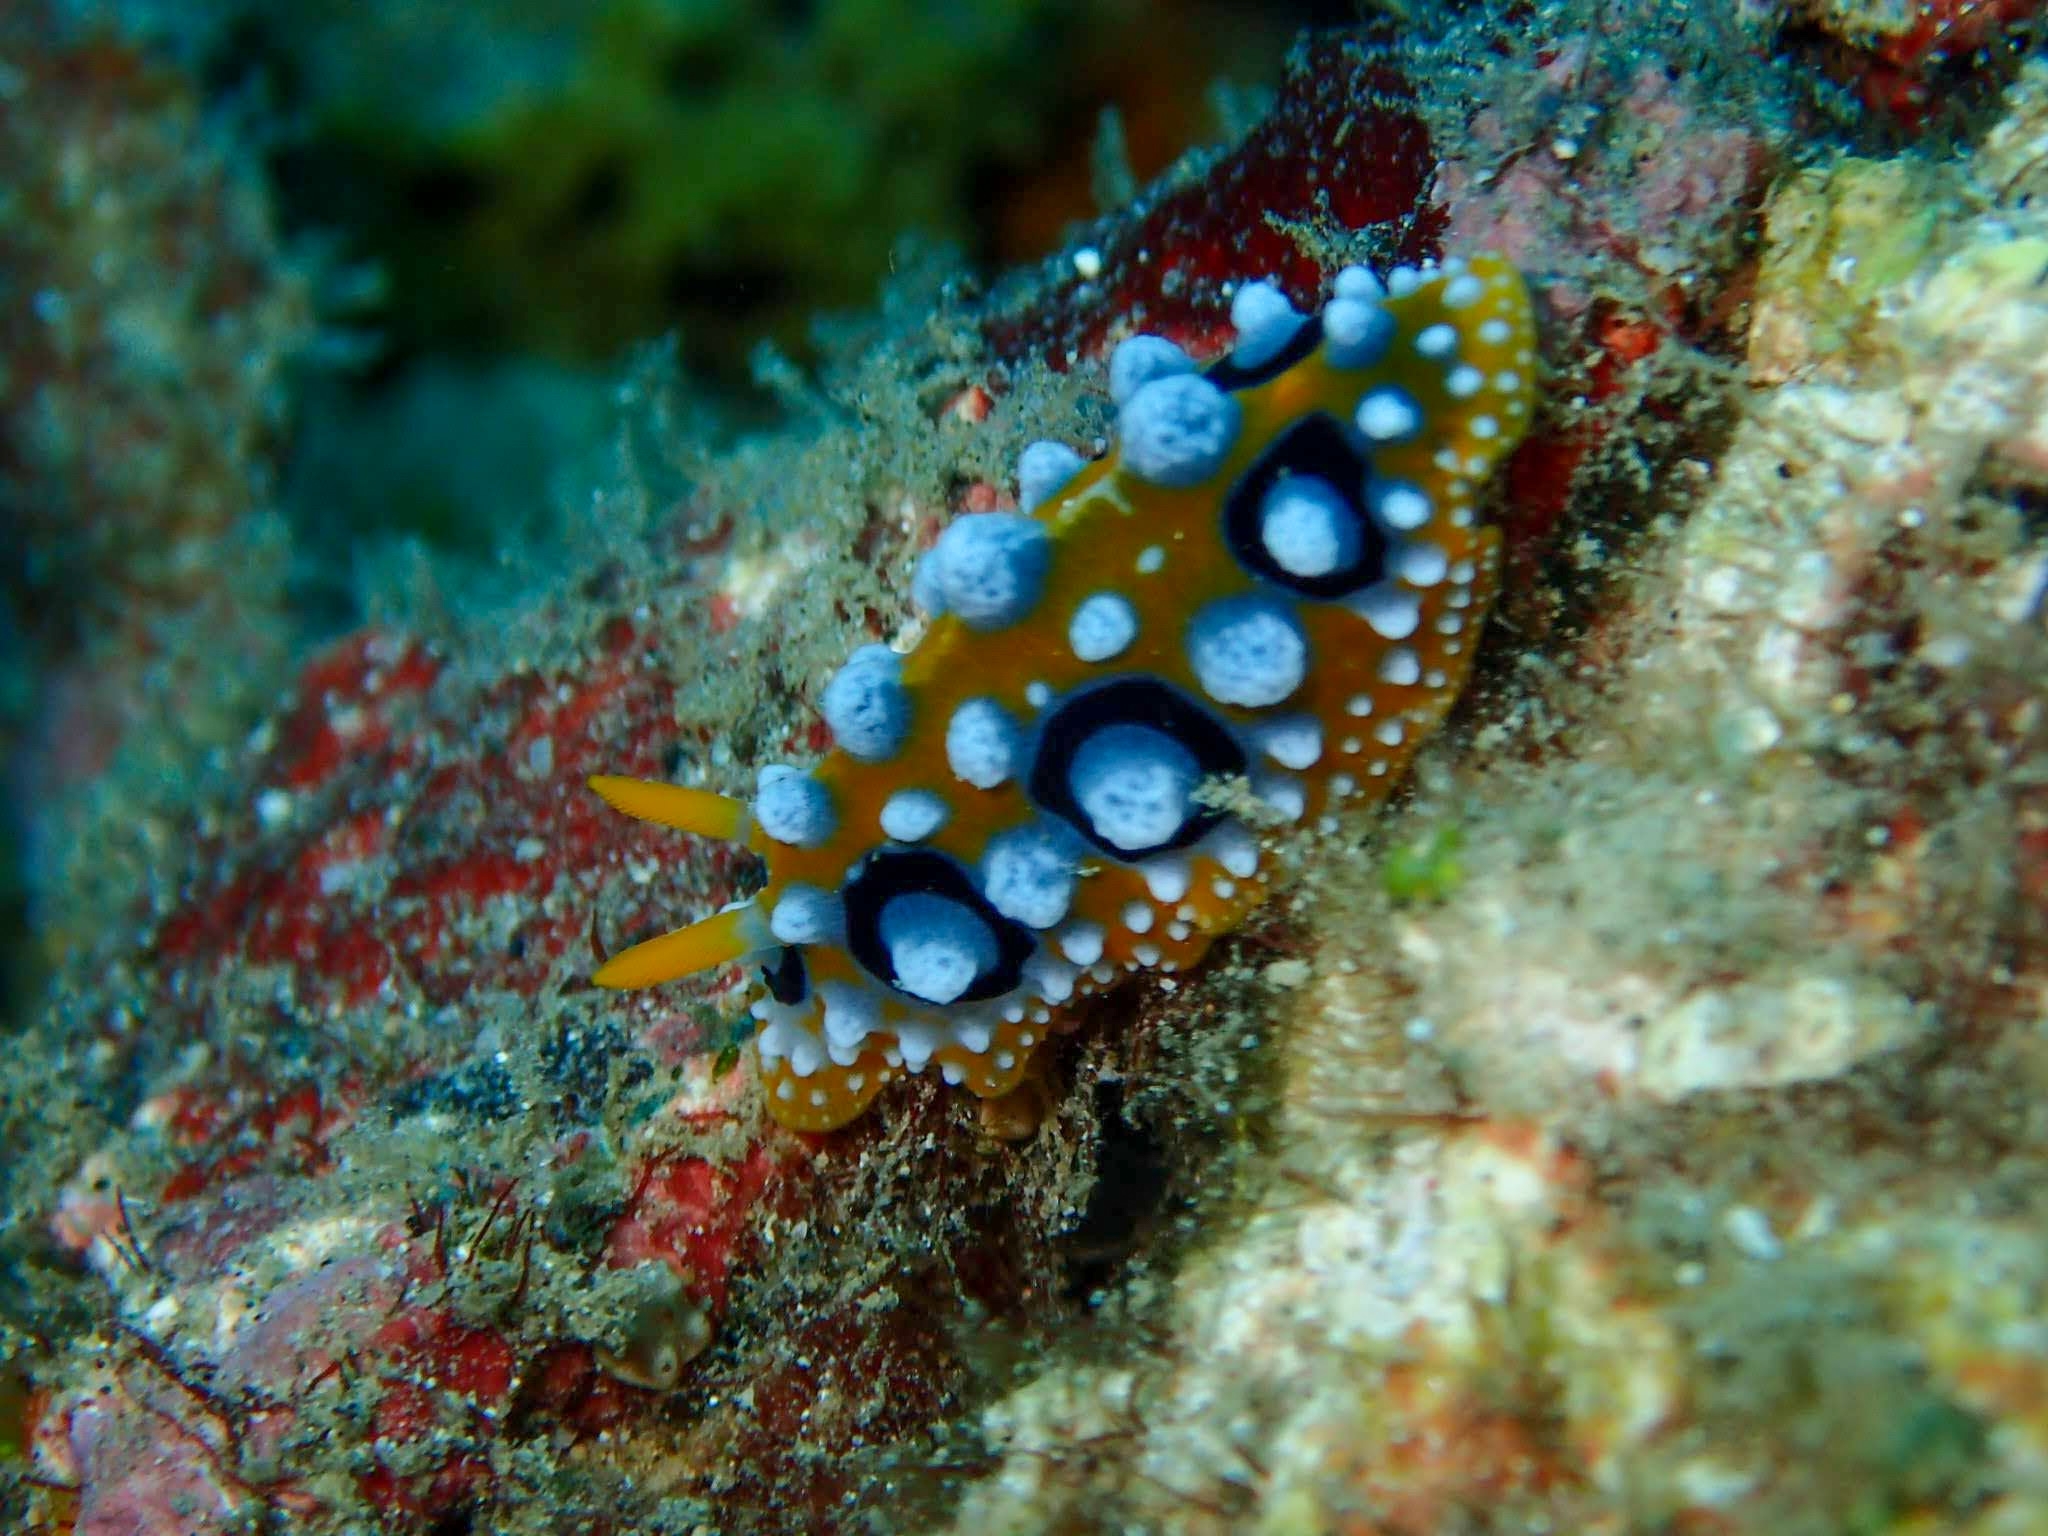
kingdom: Animalia
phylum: Mollusca
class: Gastropoda
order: Nudibranchia
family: Phyllidiidae
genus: Phyllidia
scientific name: Phyllidia ocellata
